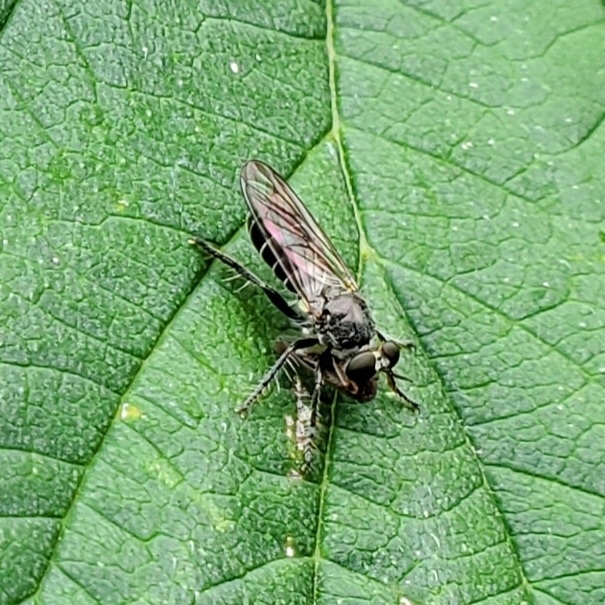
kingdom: Animalia
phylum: Arthropoda
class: Insecta
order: Diptera
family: Asilidae
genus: Atomosia
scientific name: Atomosia puella
